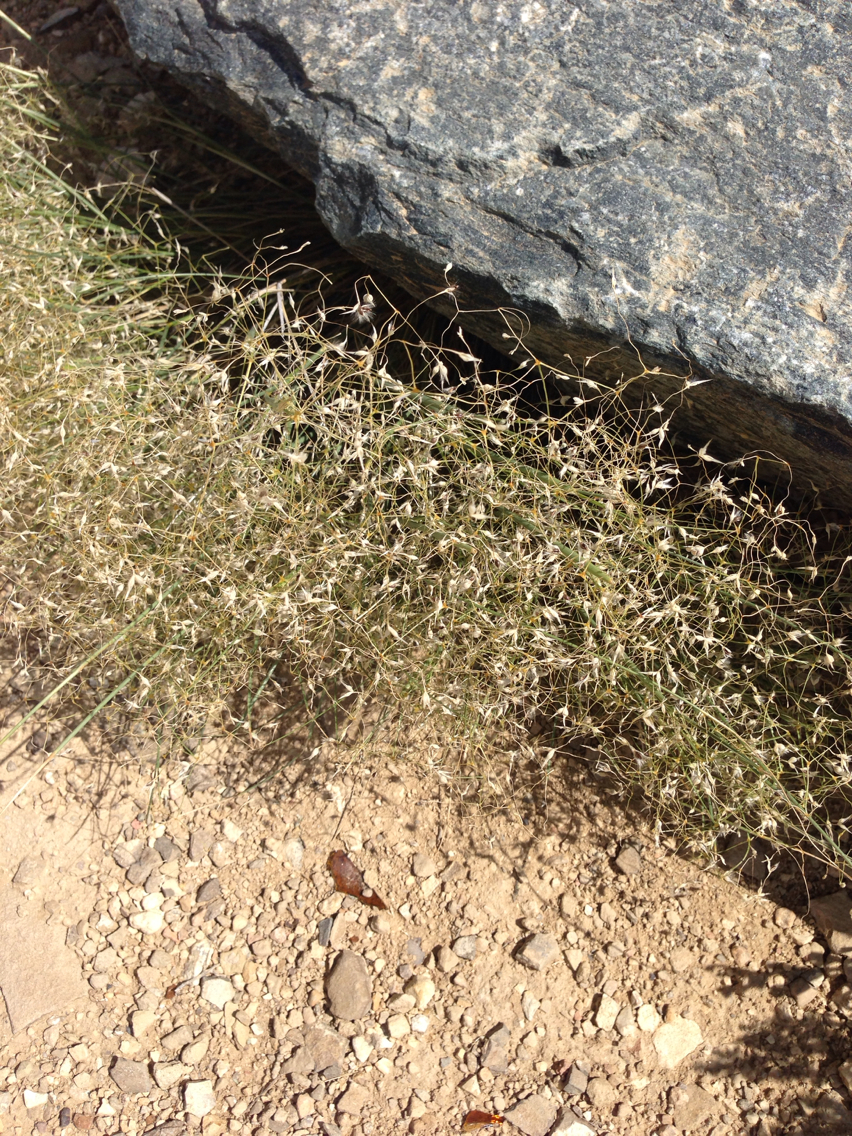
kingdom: Plantae
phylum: Tracheophyta
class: Liliopsida
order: Poales
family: Poaceae
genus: Eriocoma
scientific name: Eriocoma hymenoides
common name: Indian mountain ricegrass
